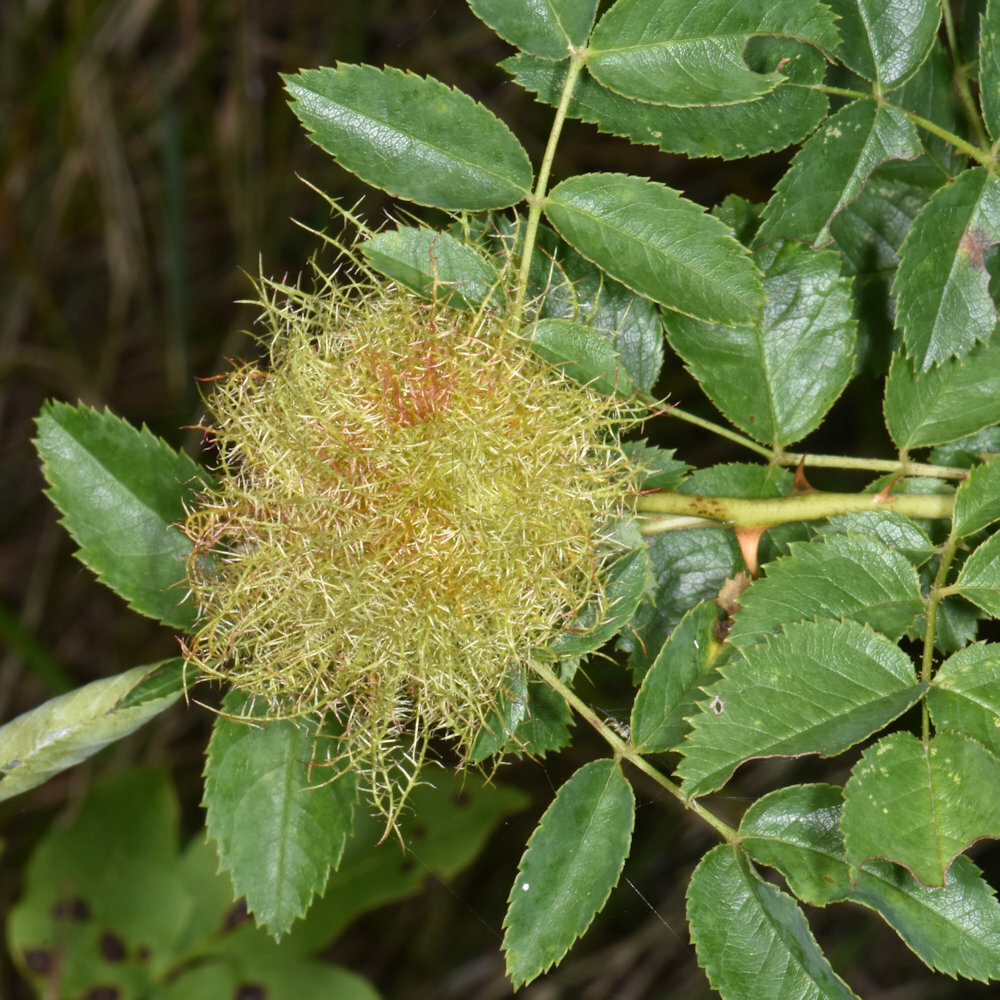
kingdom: Animalia
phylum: Arthropoda
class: Insecta
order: Hymenoptera
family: Cynipidae
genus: Diplolepis
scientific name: Diplolepis rosae
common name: Bedeguar gall
